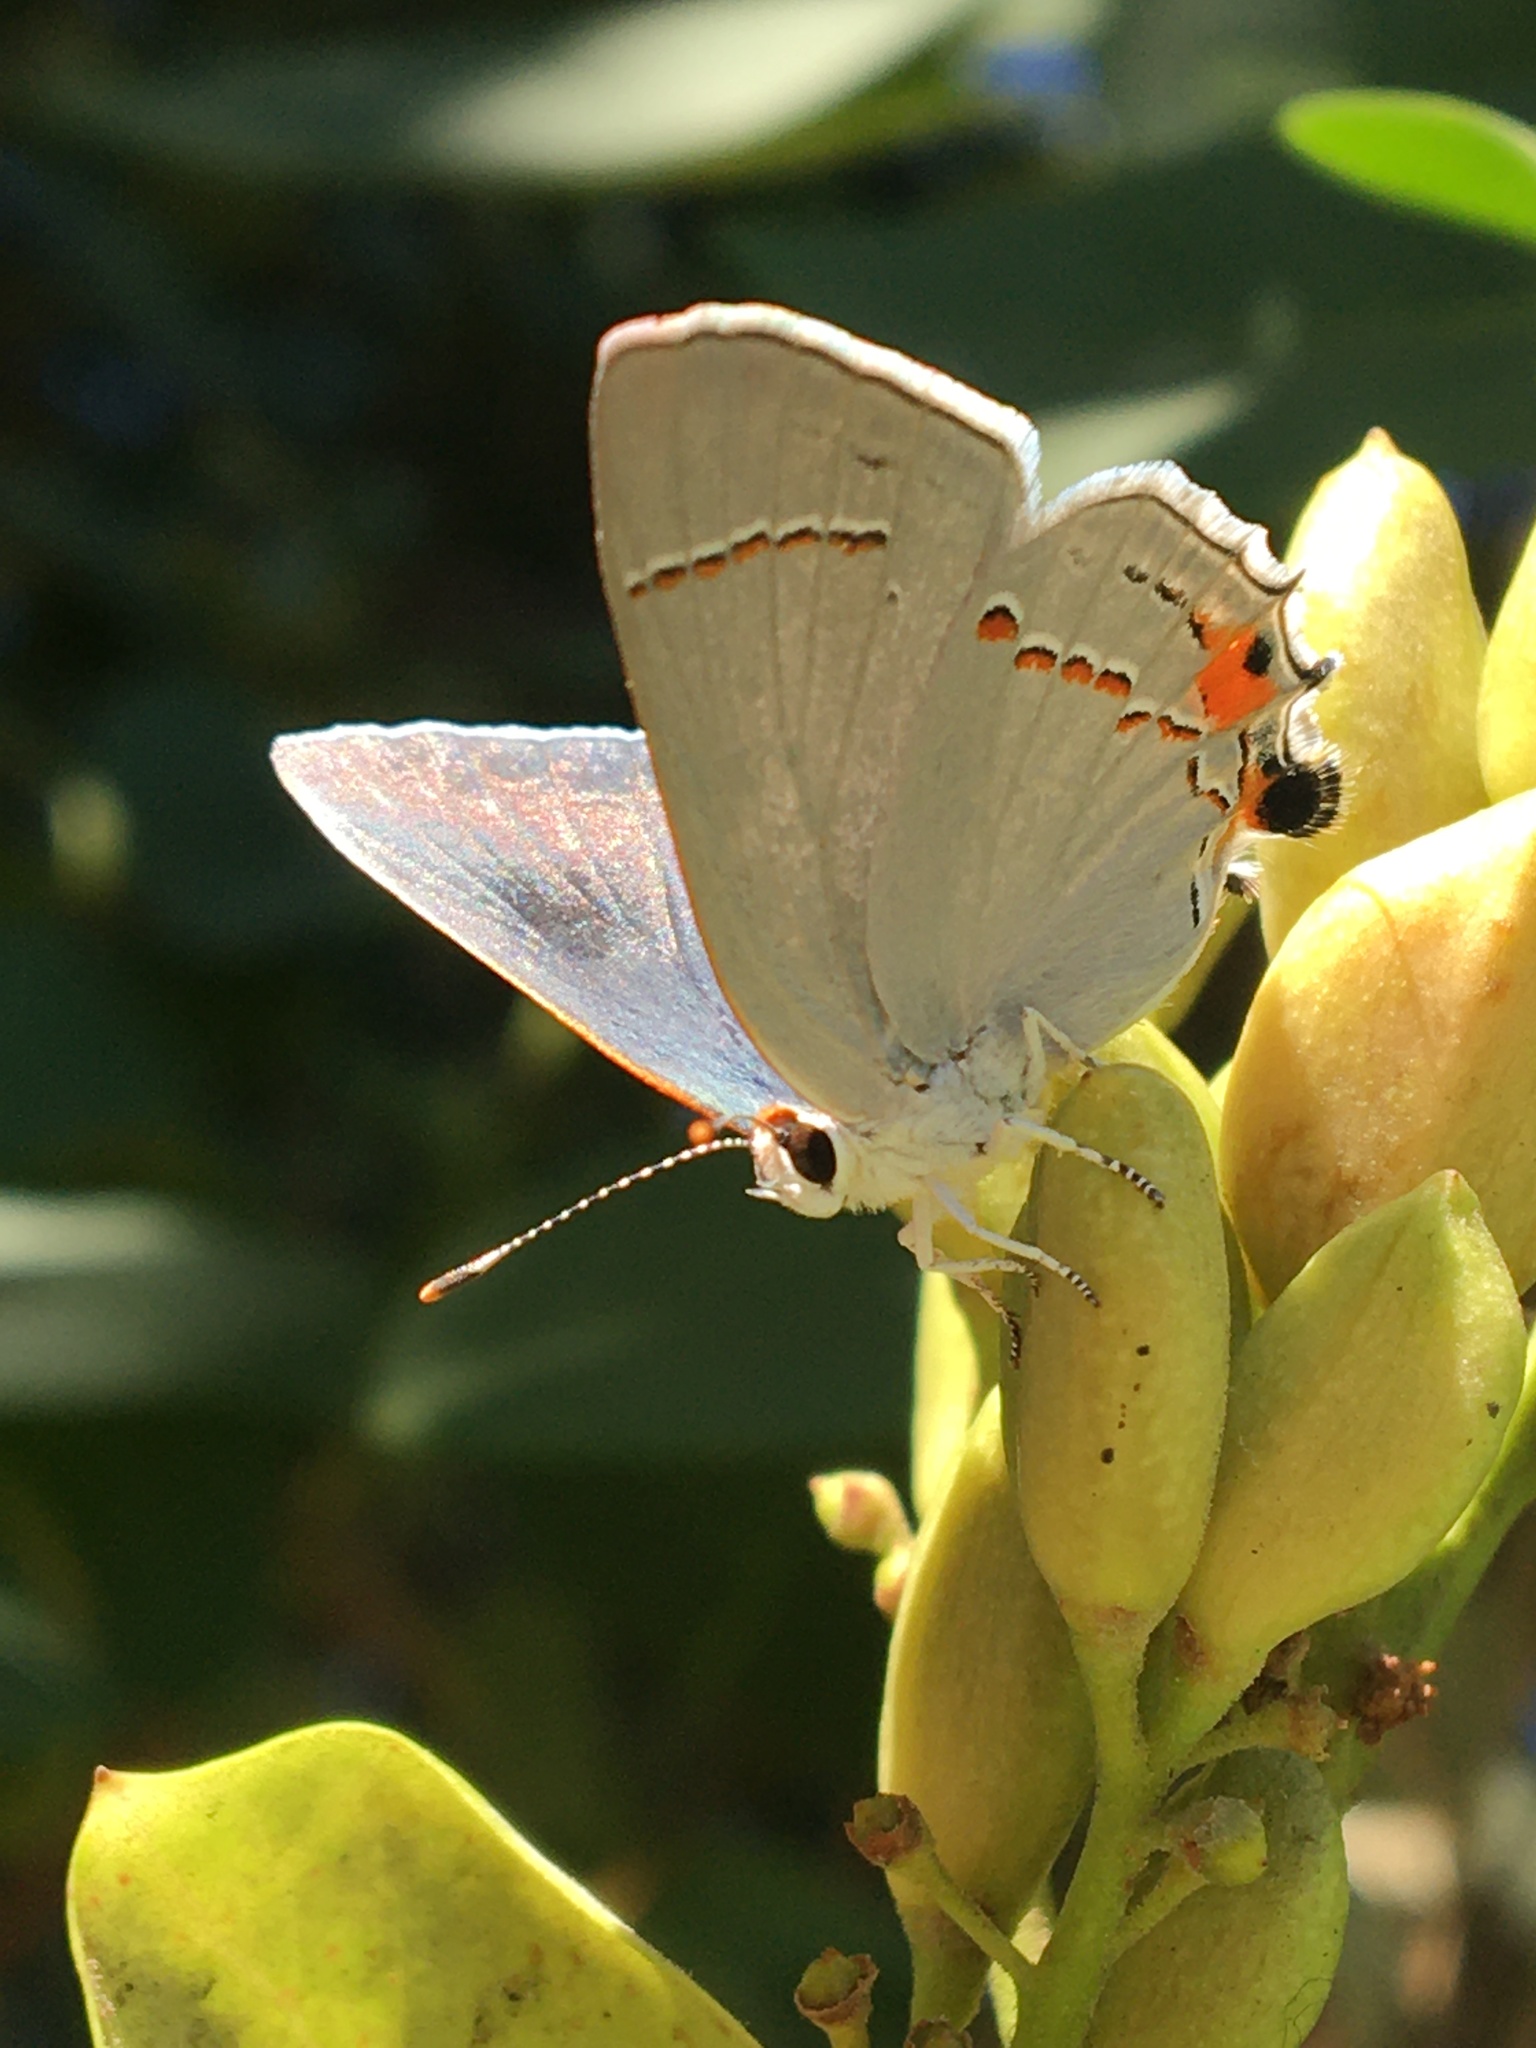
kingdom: Animalia
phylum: Arthropoda
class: Insecta
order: Lepidoptera
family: Lycaenidae
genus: Strymon
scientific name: Strymon melinus
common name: Gray hairstreak
